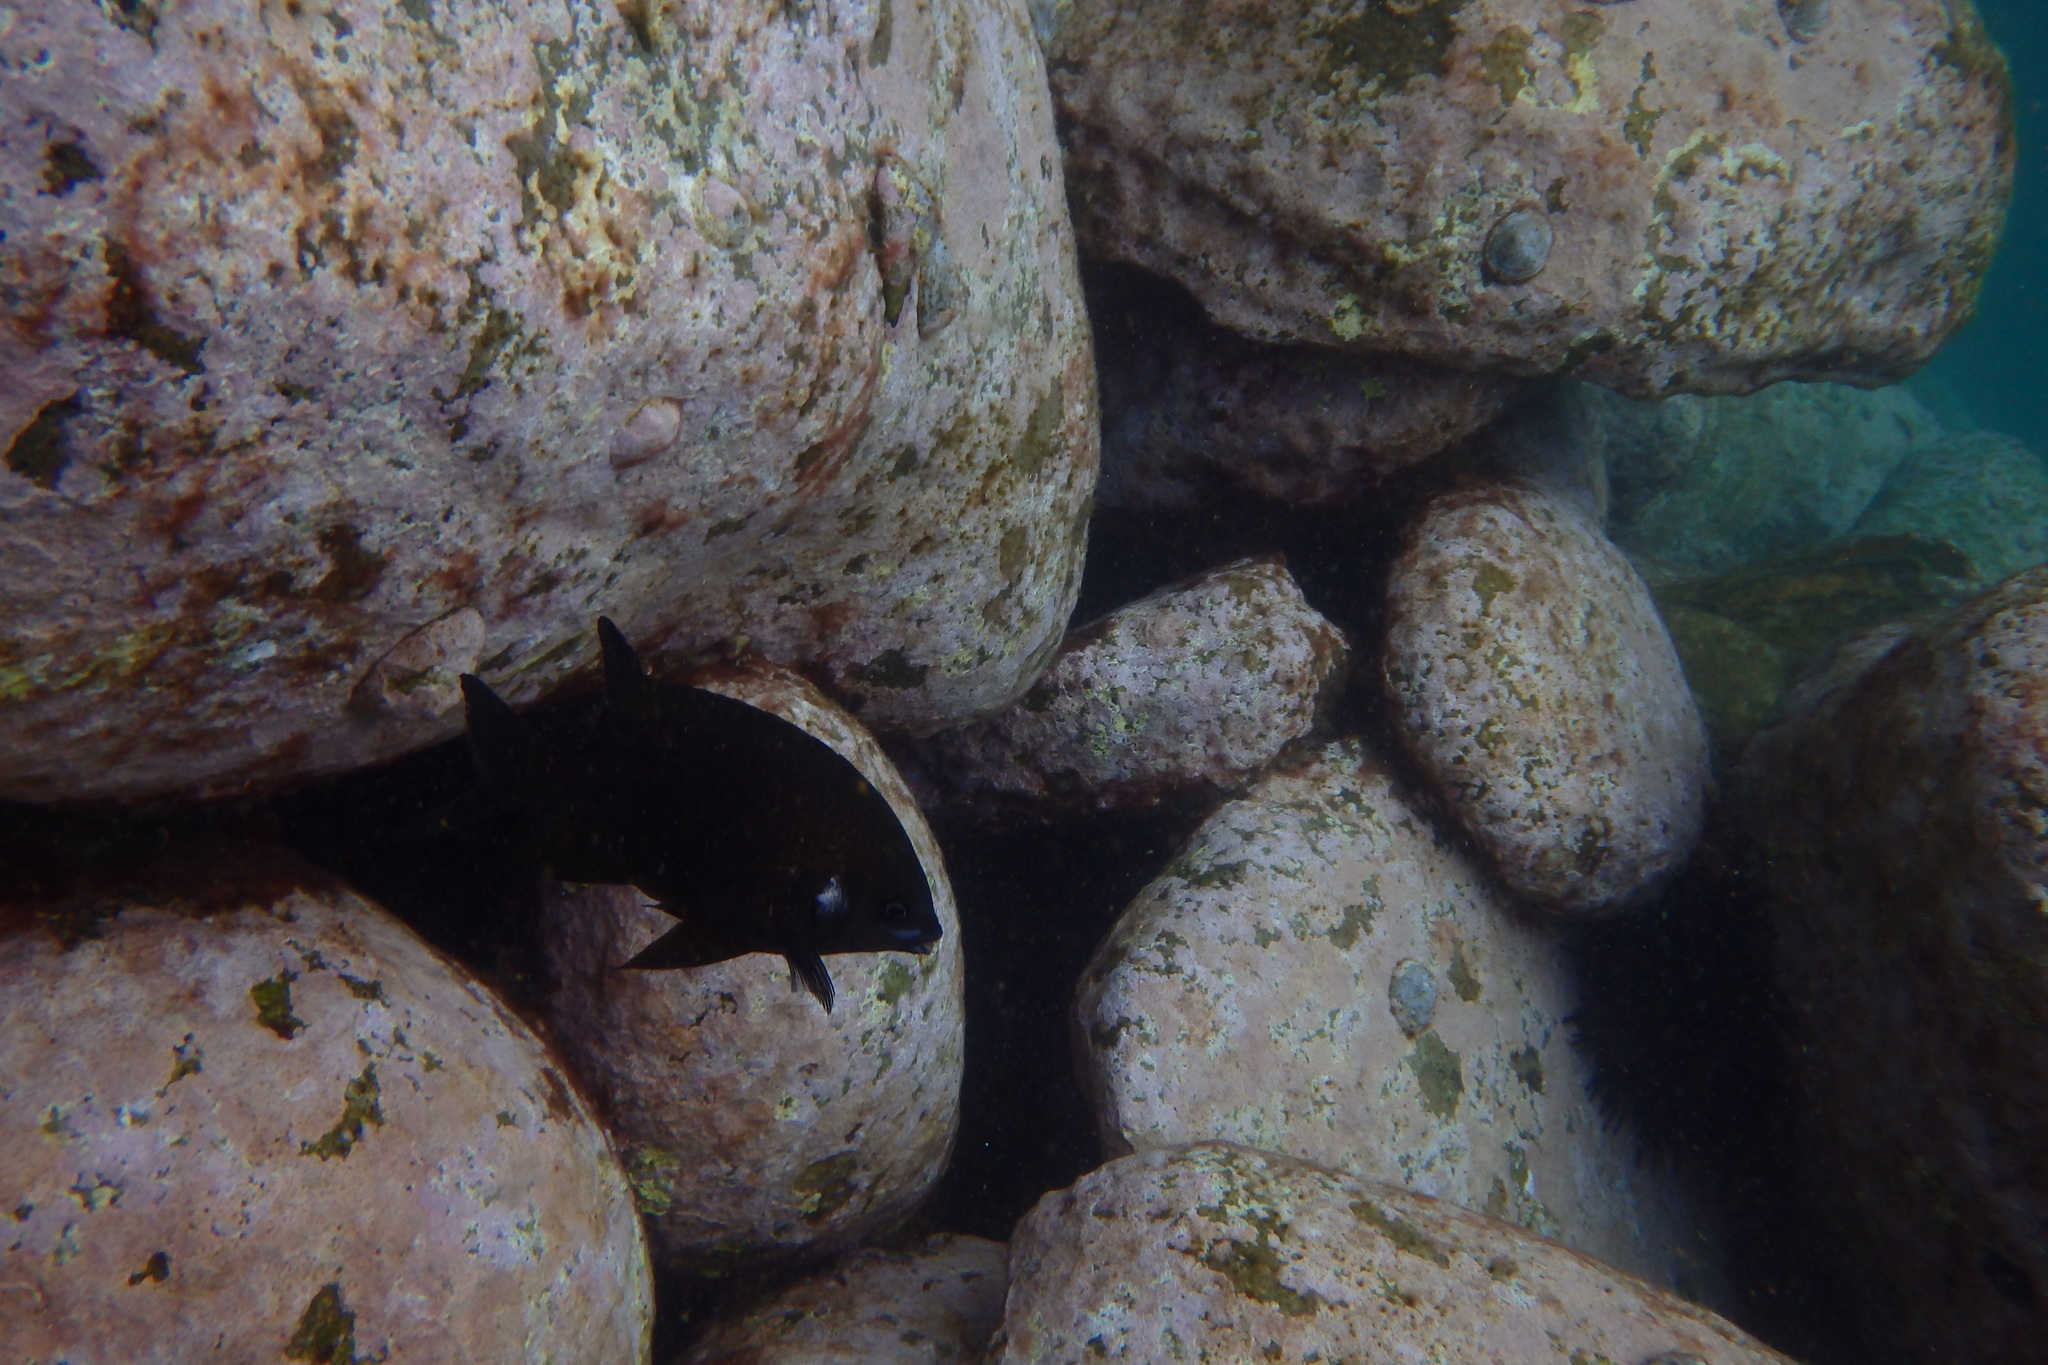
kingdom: Animalia
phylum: Chordata
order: Perciformes
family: Pomacentridae
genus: Parma
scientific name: Parma microlepis
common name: White-ear
